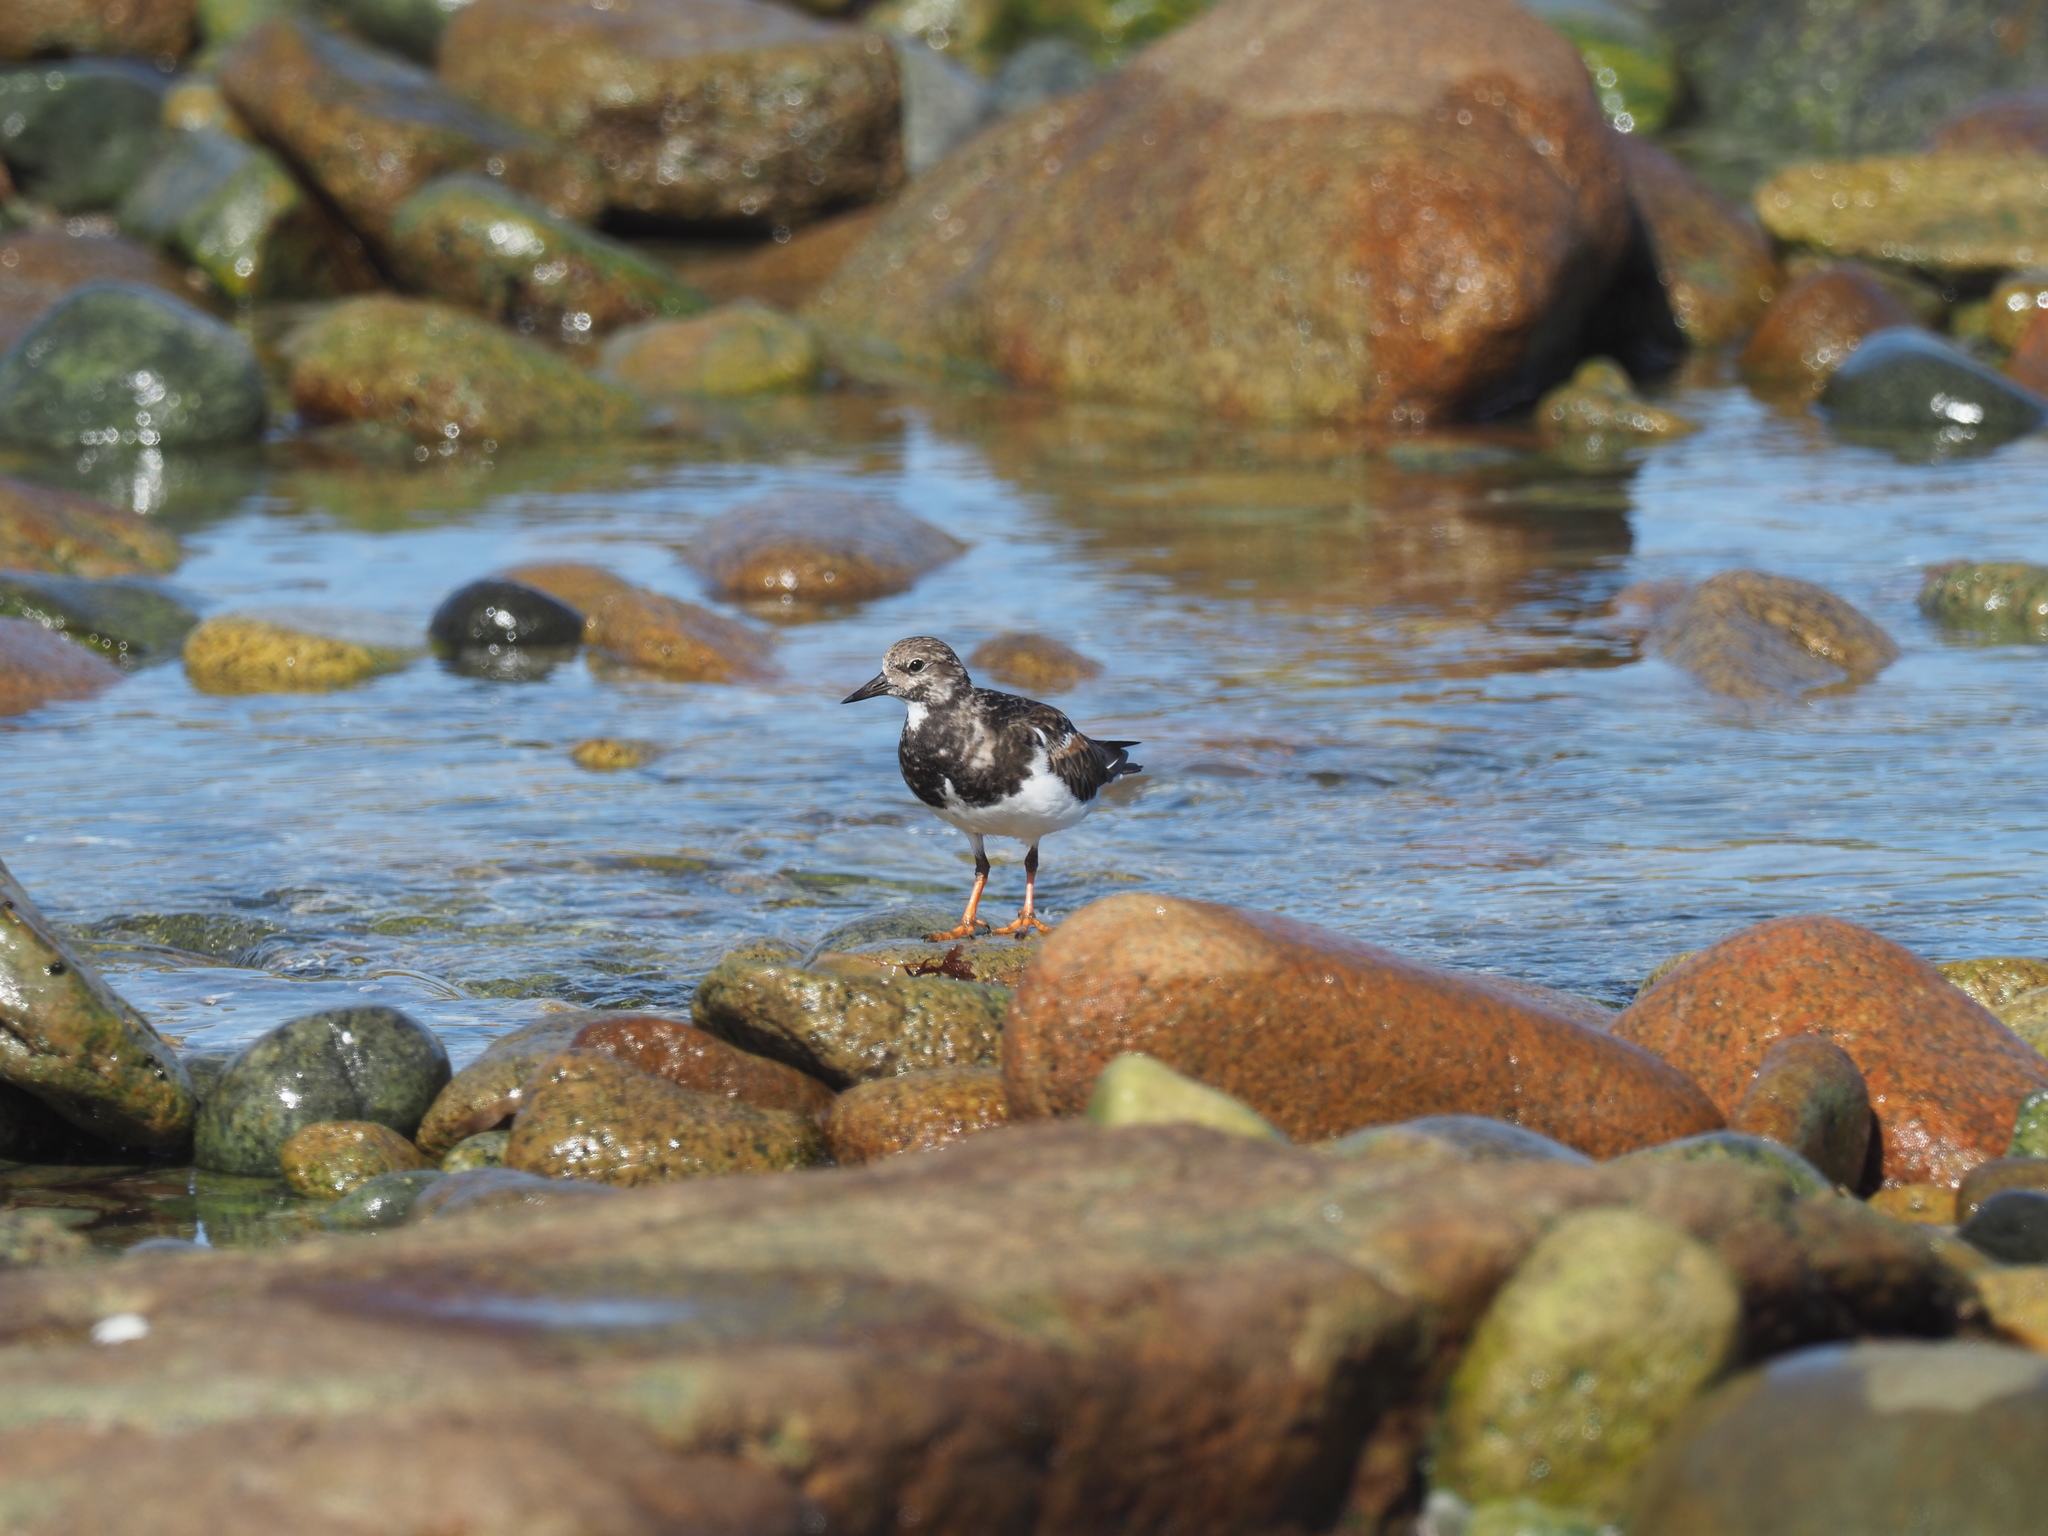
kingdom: Animalia
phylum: Chordata
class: Aves
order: Charadriiformes
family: Scolopacidae
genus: Arenaria
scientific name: Arenaria interpres
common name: Ruddy turnstone
